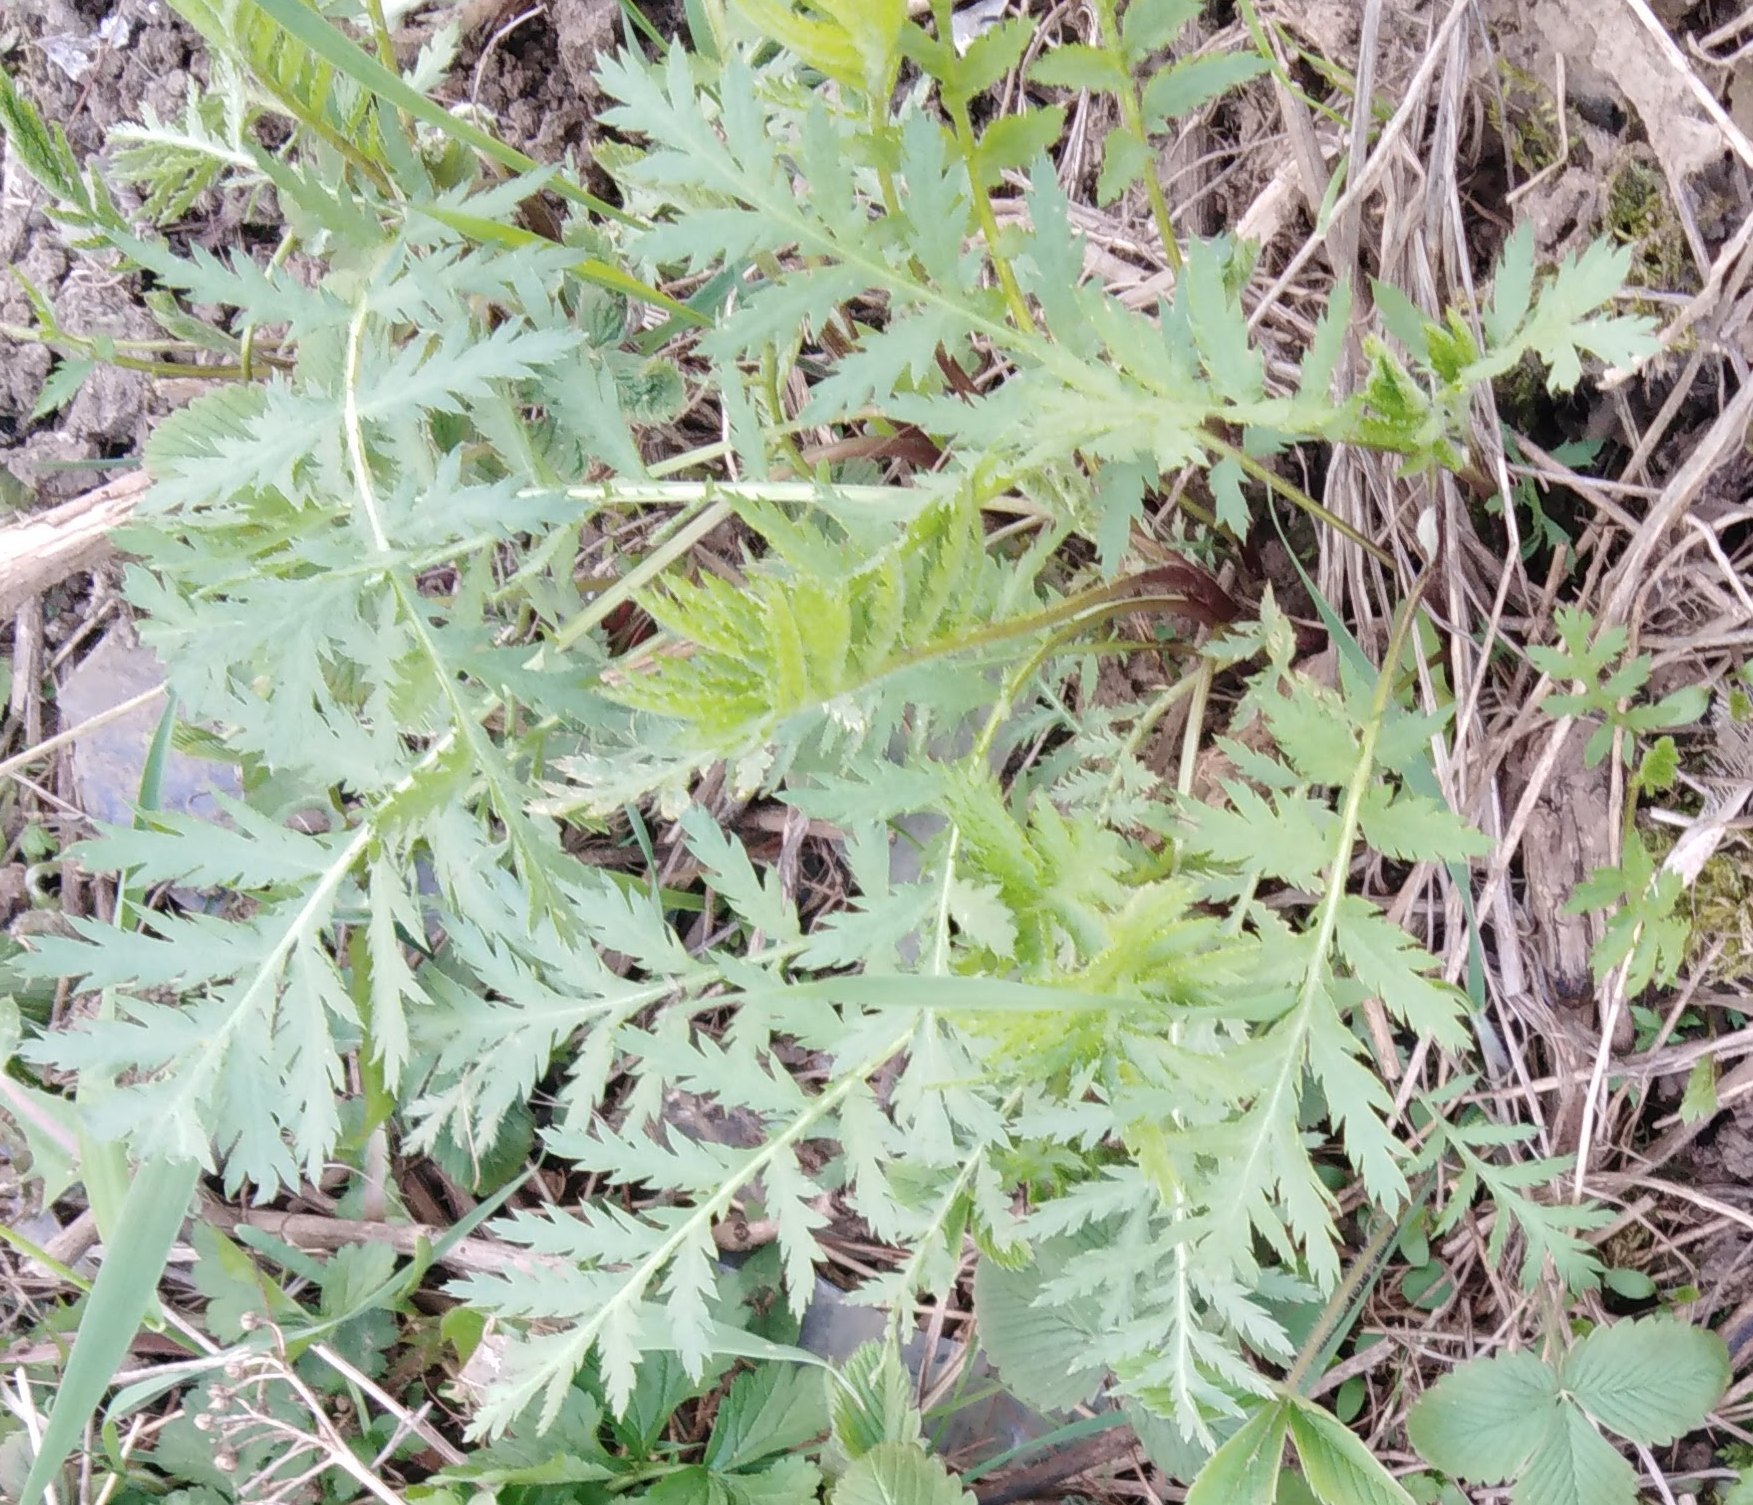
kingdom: Plantae
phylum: Tracheophyta
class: Magnoliopsida
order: Asterales
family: Asteraceae
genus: Tanacetum
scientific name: Tanacetum vulgare
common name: Common tansy
